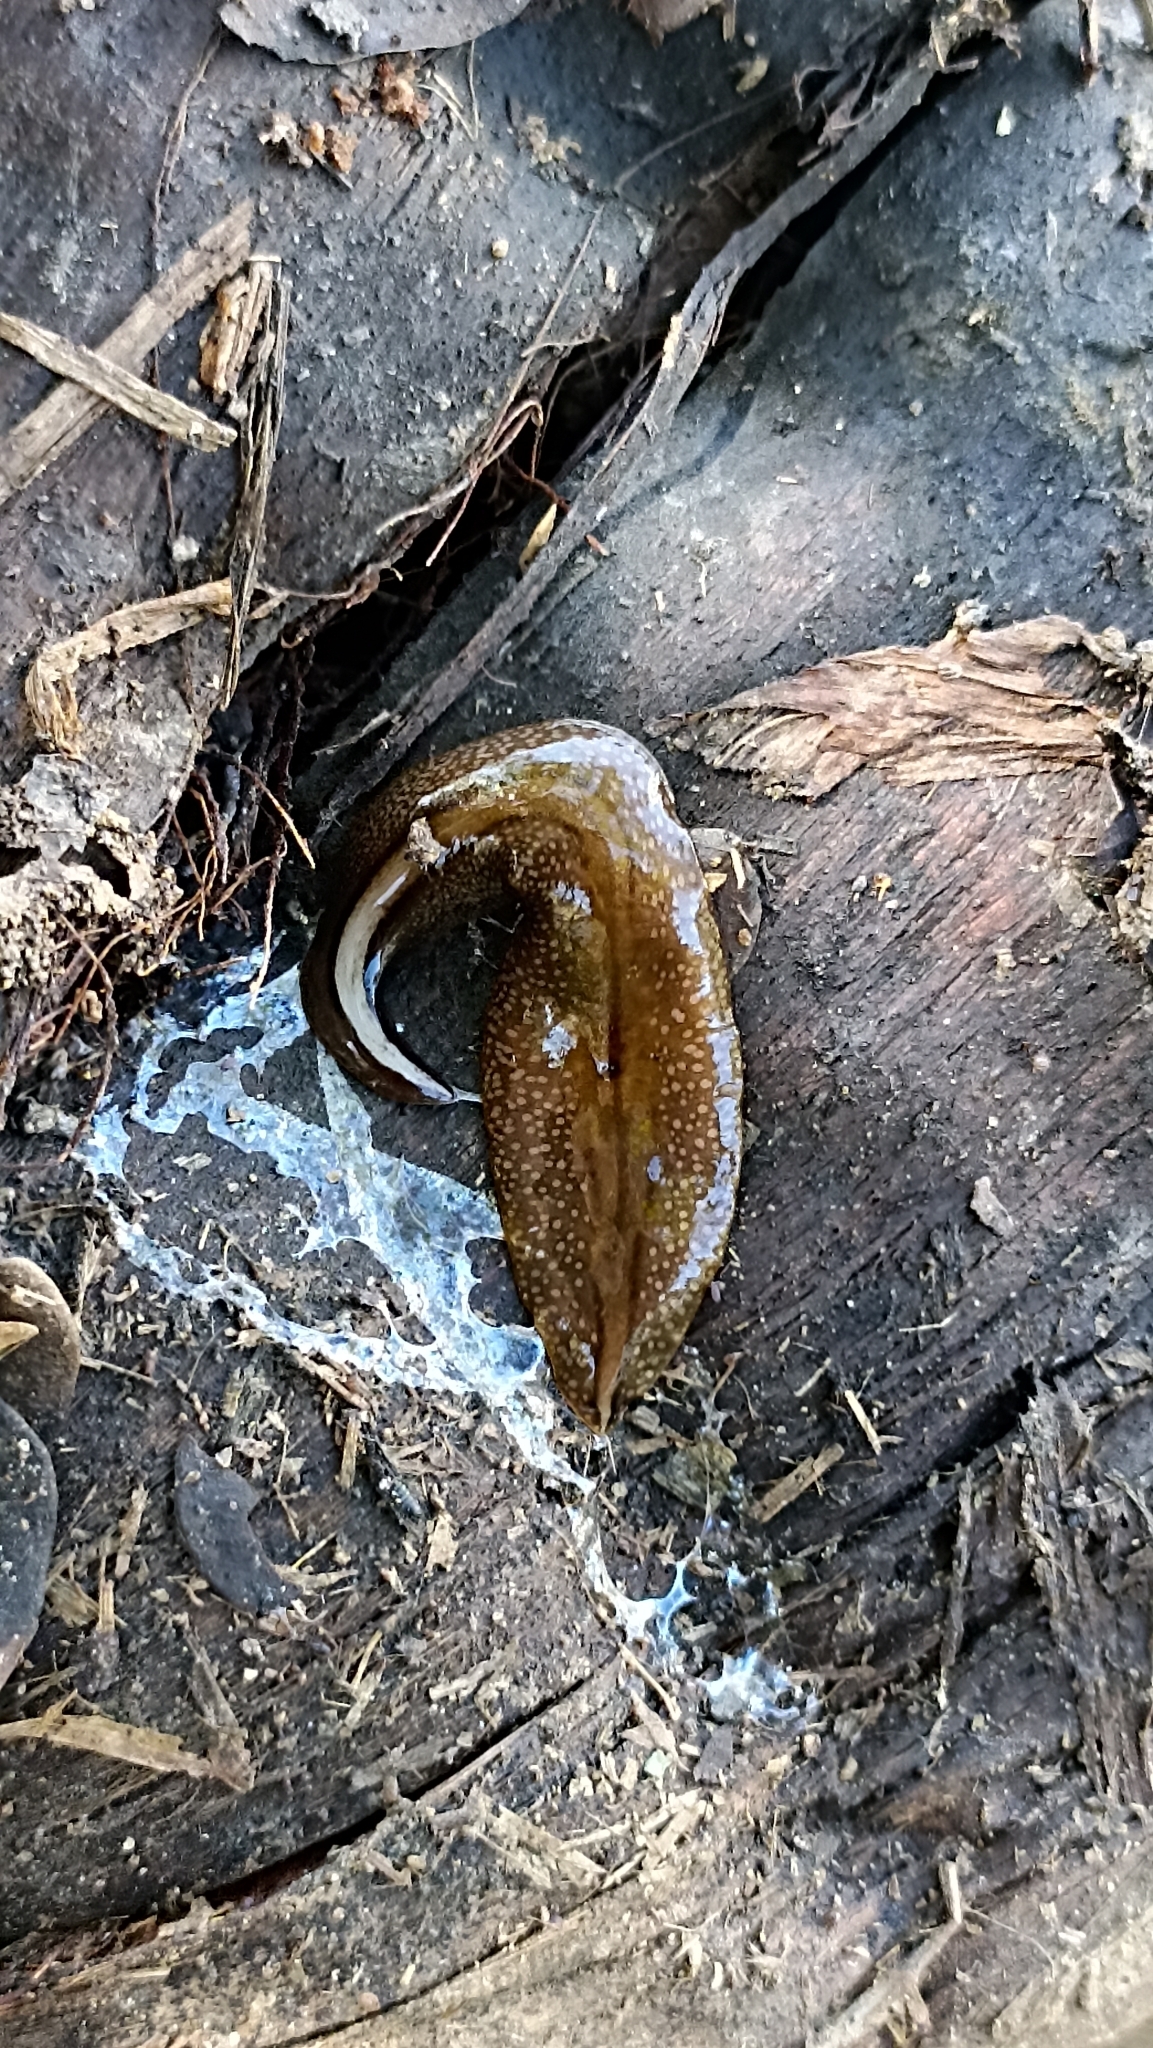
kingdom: Animalia
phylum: Platyhelminthes
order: Tricladida
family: Geoplanidae
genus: Obama
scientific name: Obama burmeisteri
